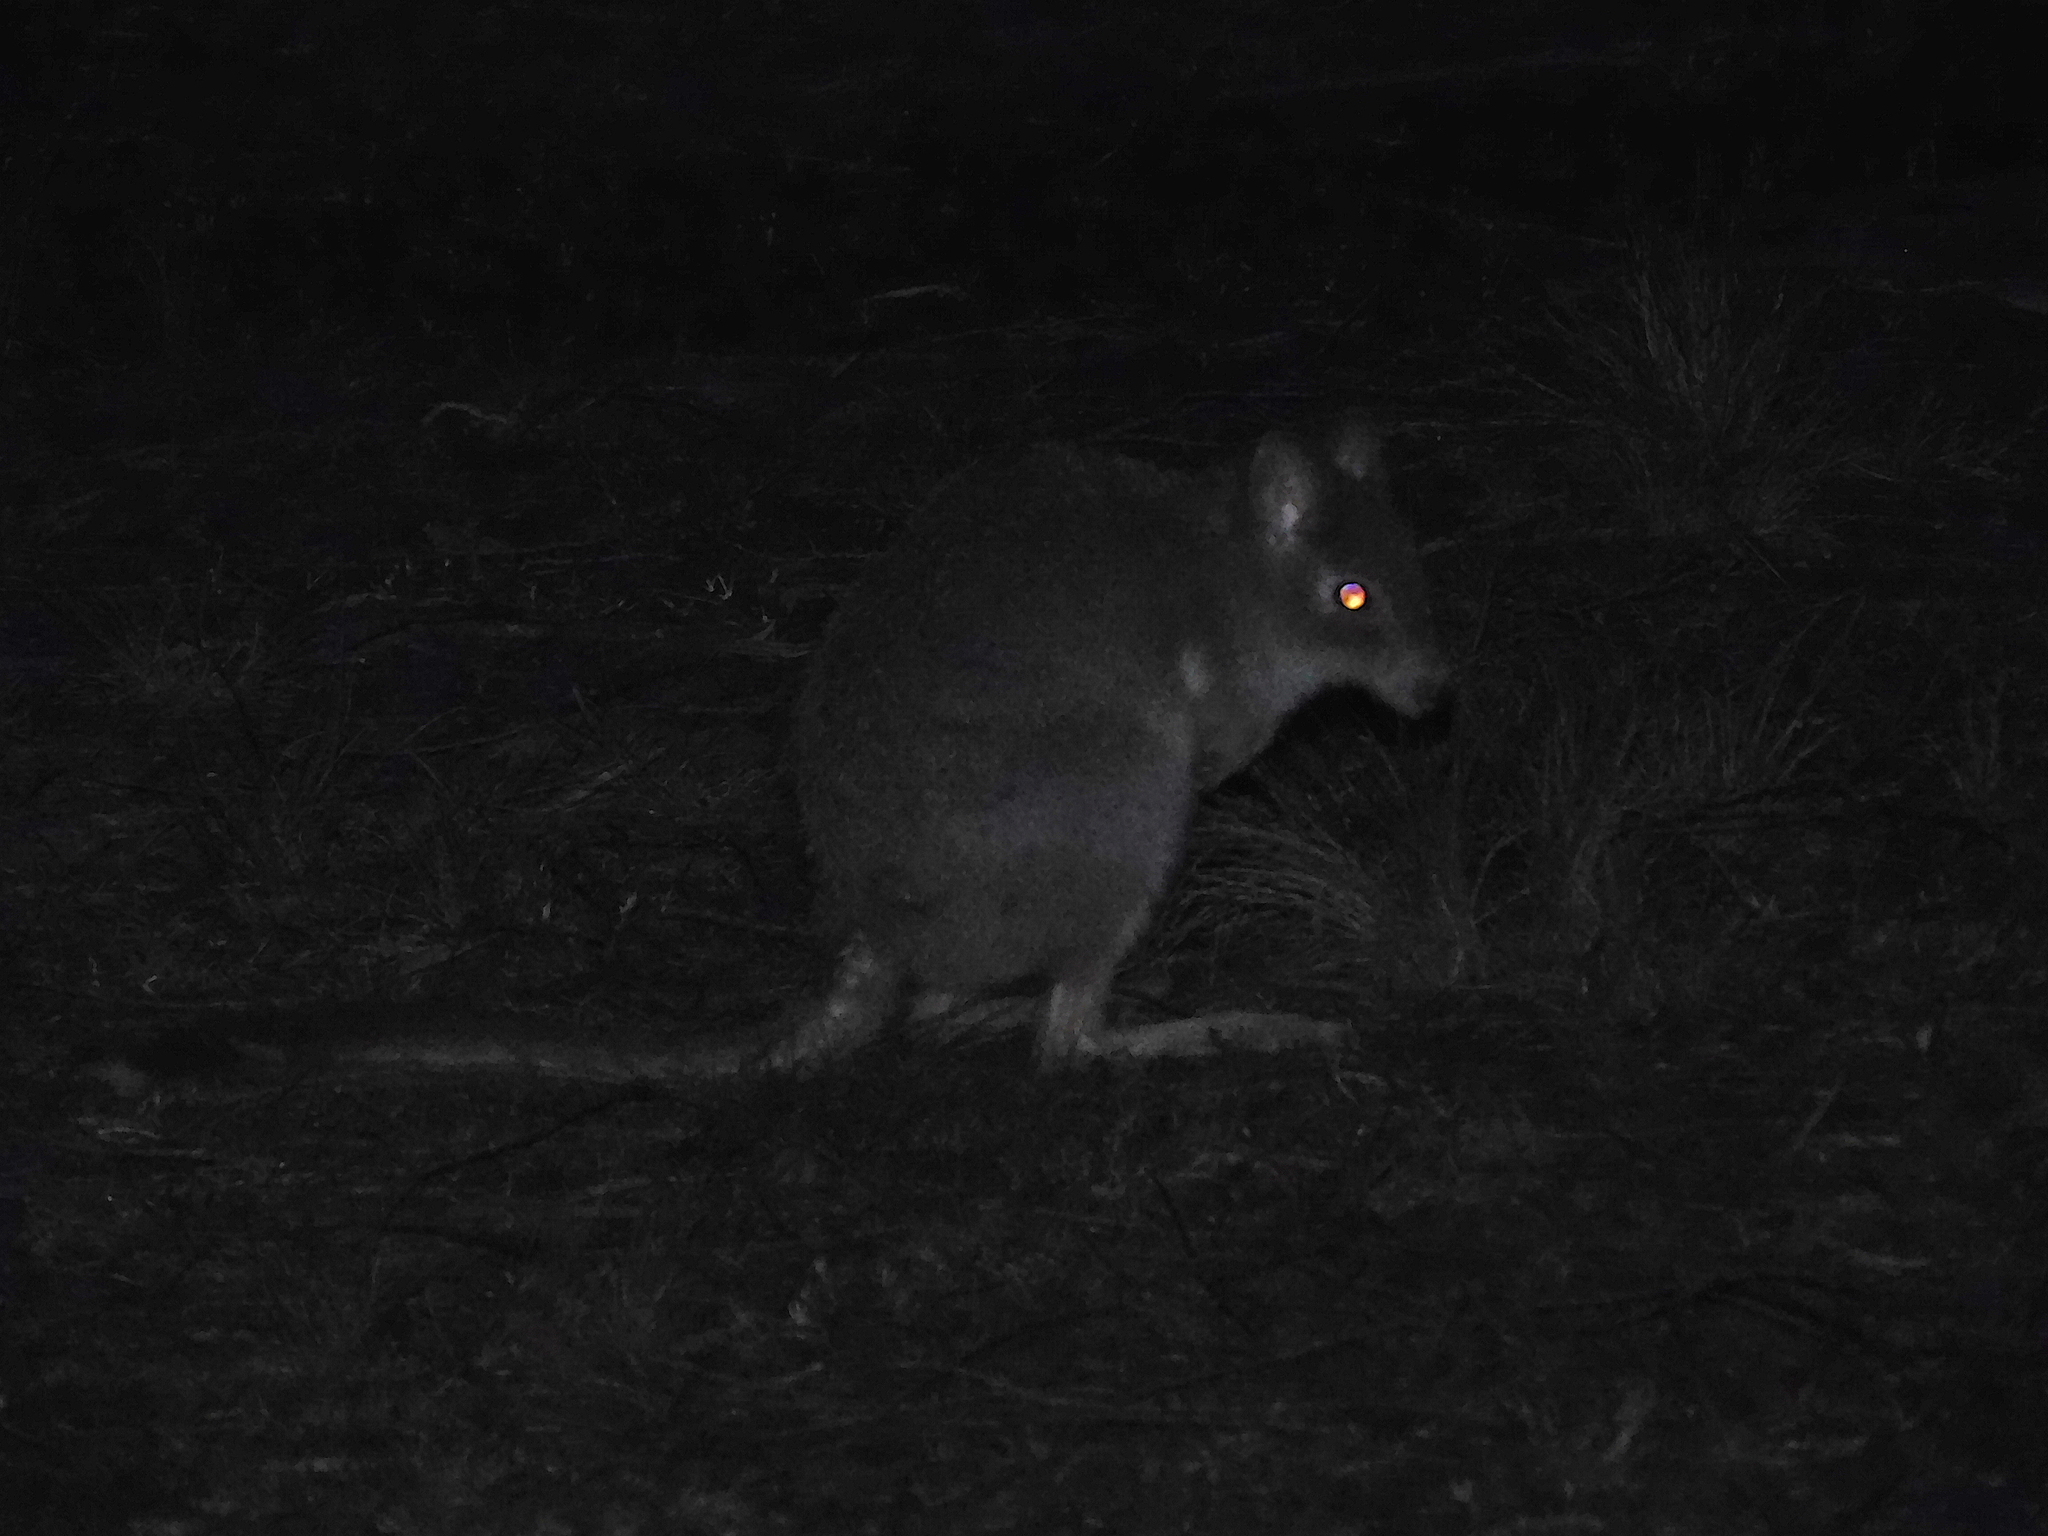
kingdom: Animalia
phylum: Chordata
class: Mammalia
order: Diprotodontia
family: Potoroidae
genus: Bettongia
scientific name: Bettongia gaimardi
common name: Eastern bettong
